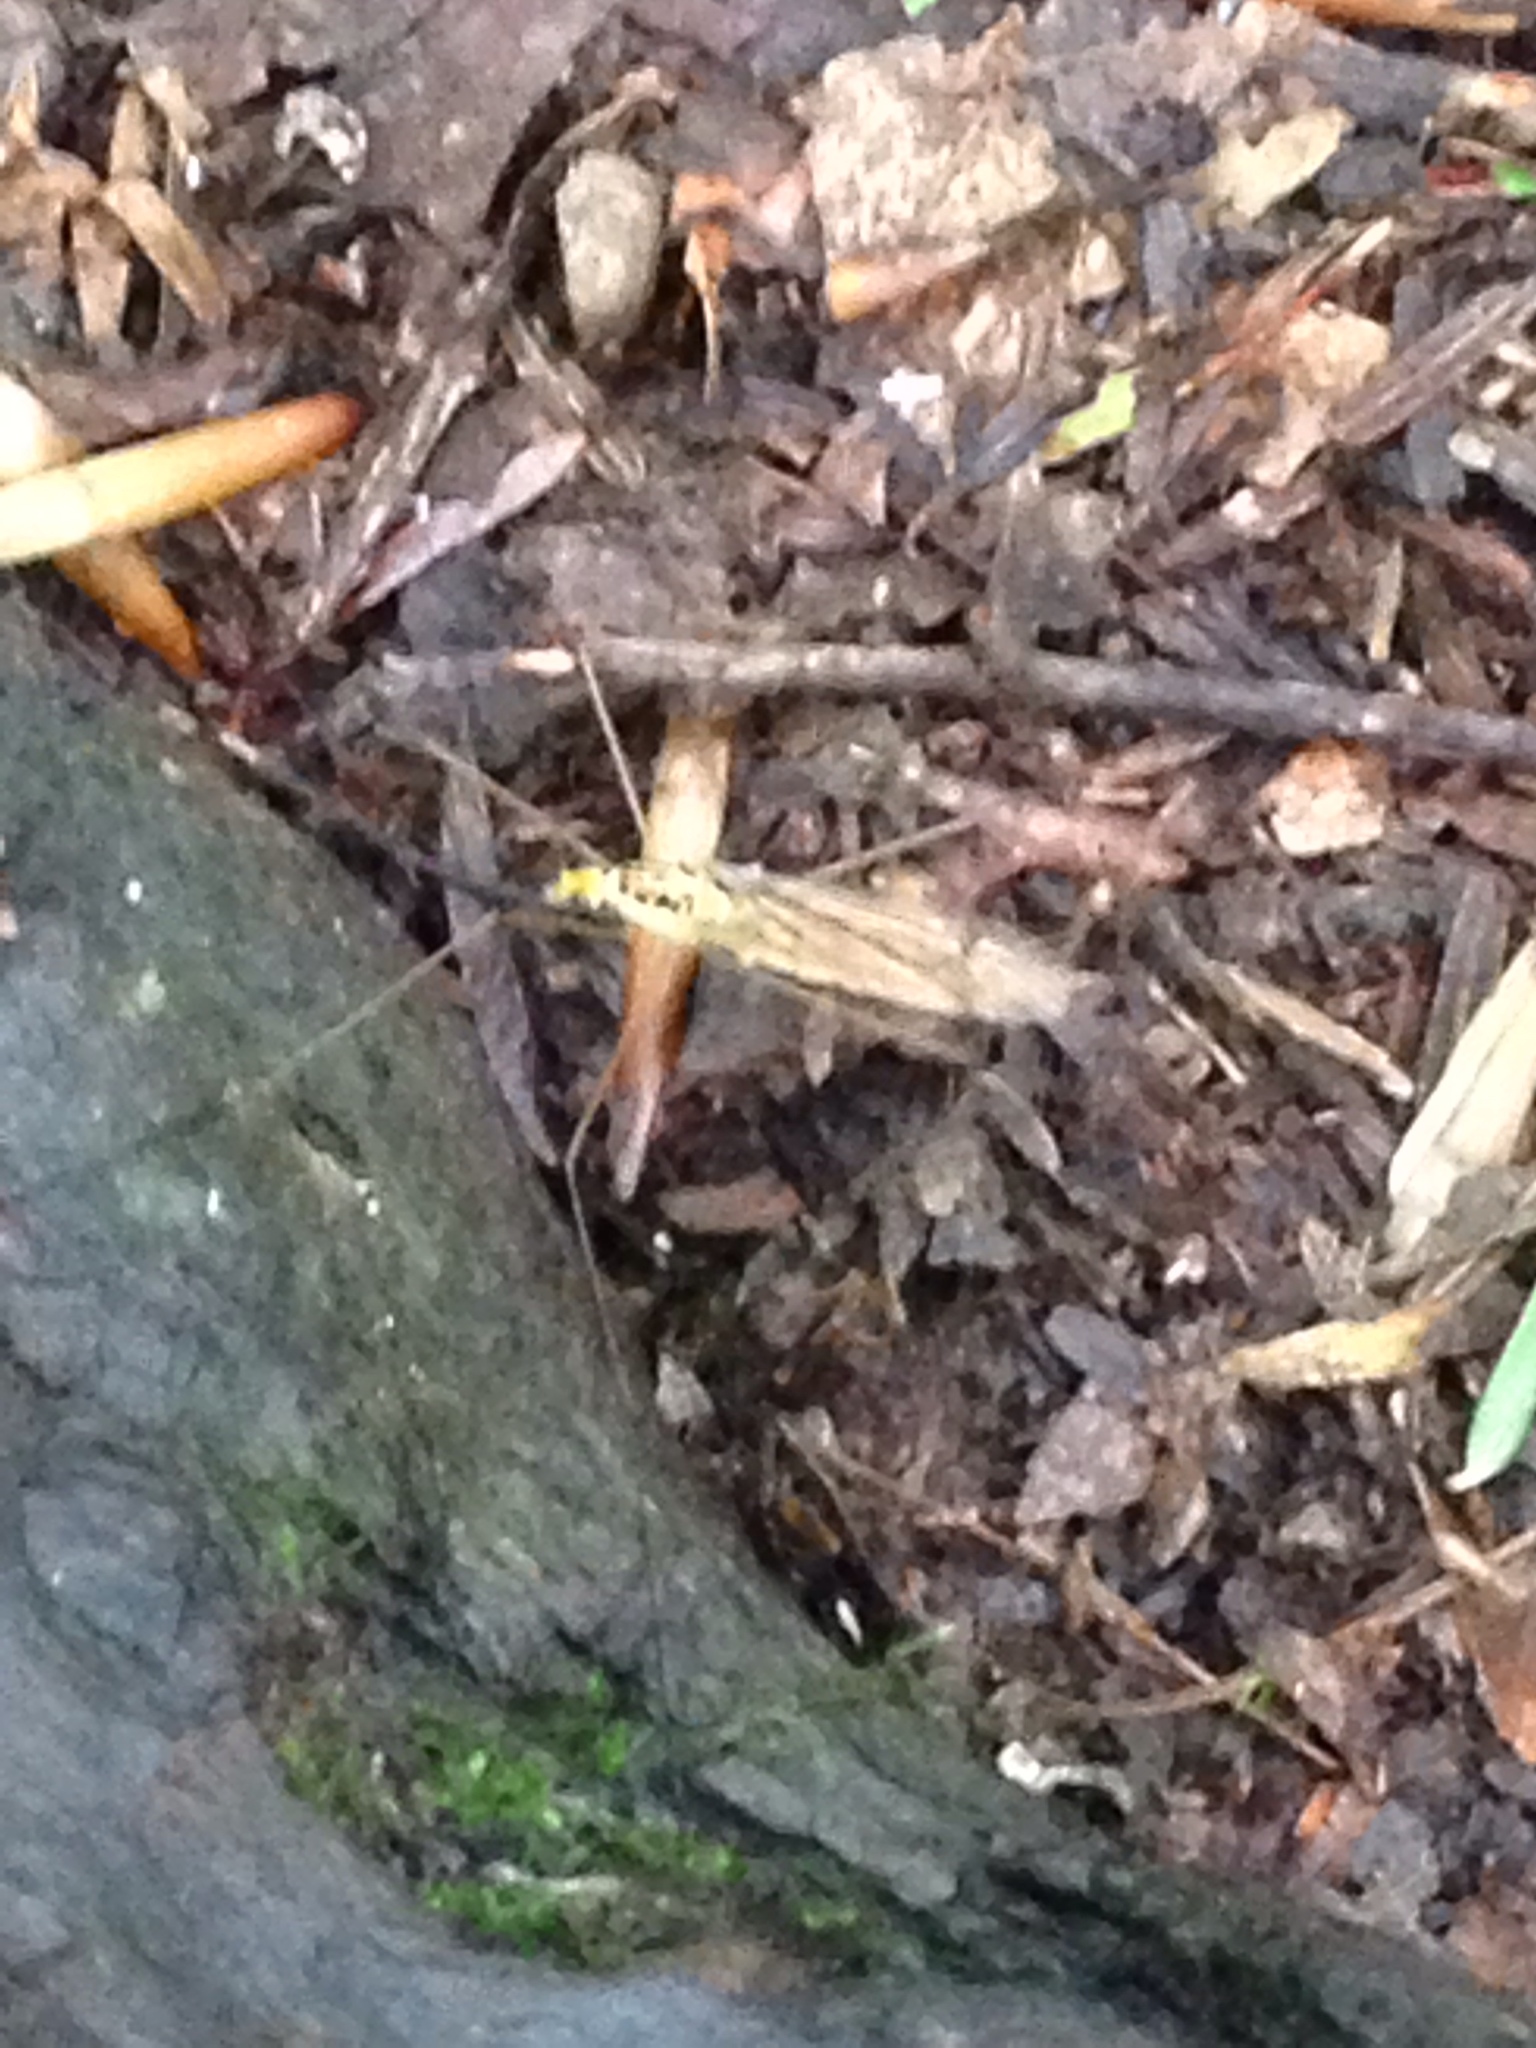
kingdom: Animalia
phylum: Arthropoda
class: Insecta
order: Diptera
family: Tipulidae
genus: Nephrotoma
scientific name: Nephrotoma virescens
